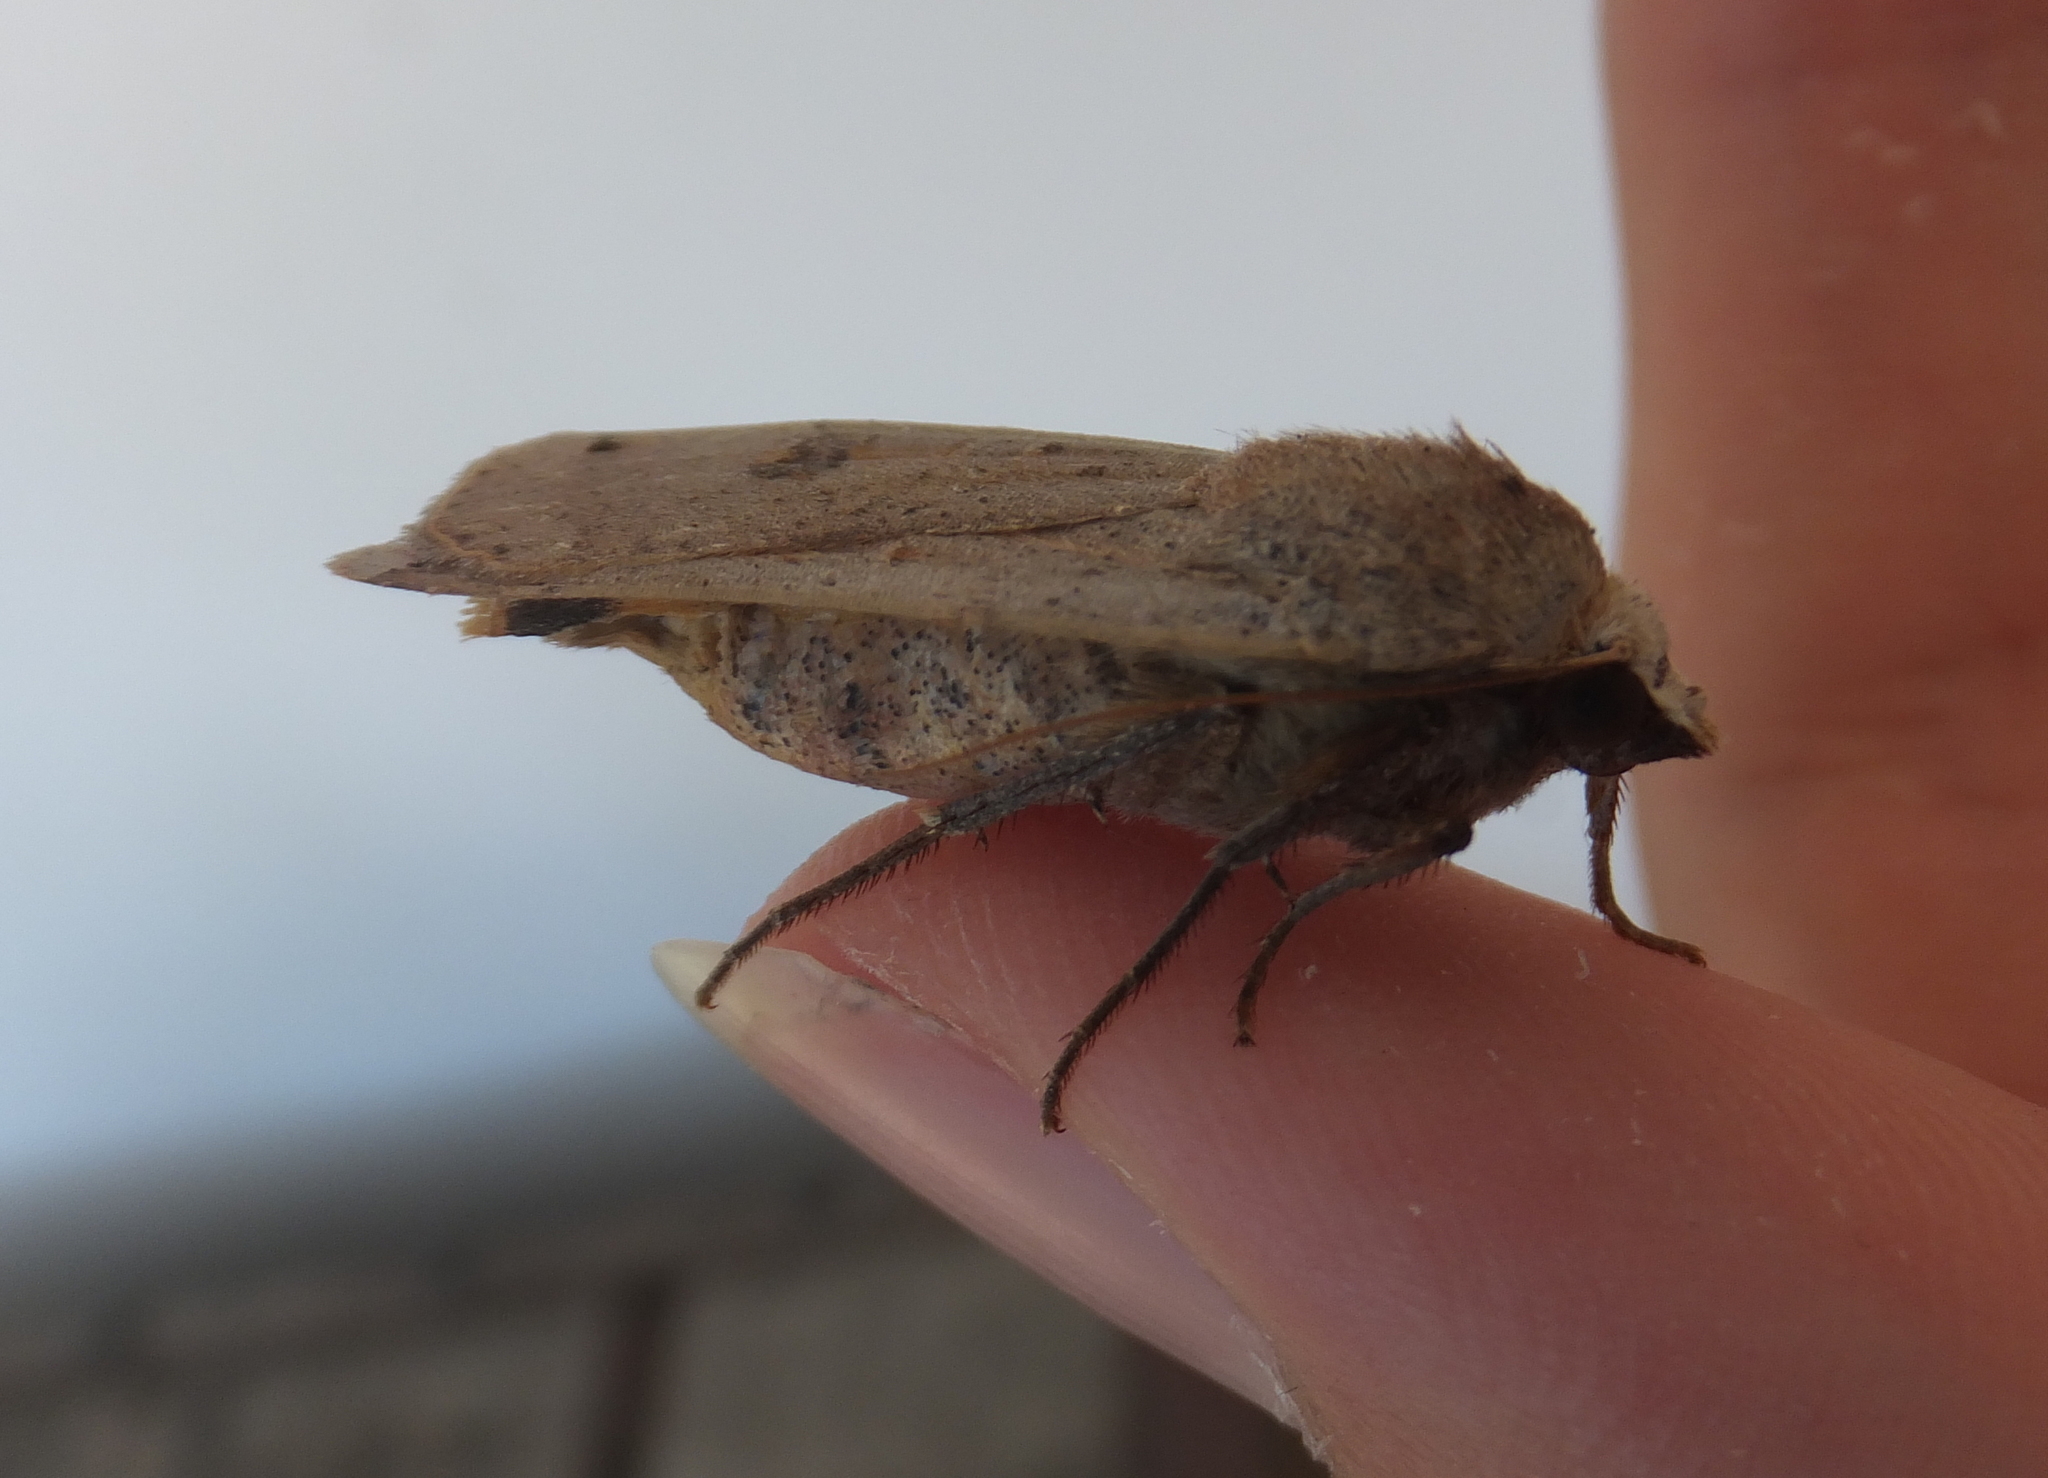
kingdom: Animalia
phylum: Arthropoda
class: Insecta
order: Lepidoptera
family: Noctuidae
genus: Noctua
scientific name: Noctua pronuba
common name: Large yellow underwing
